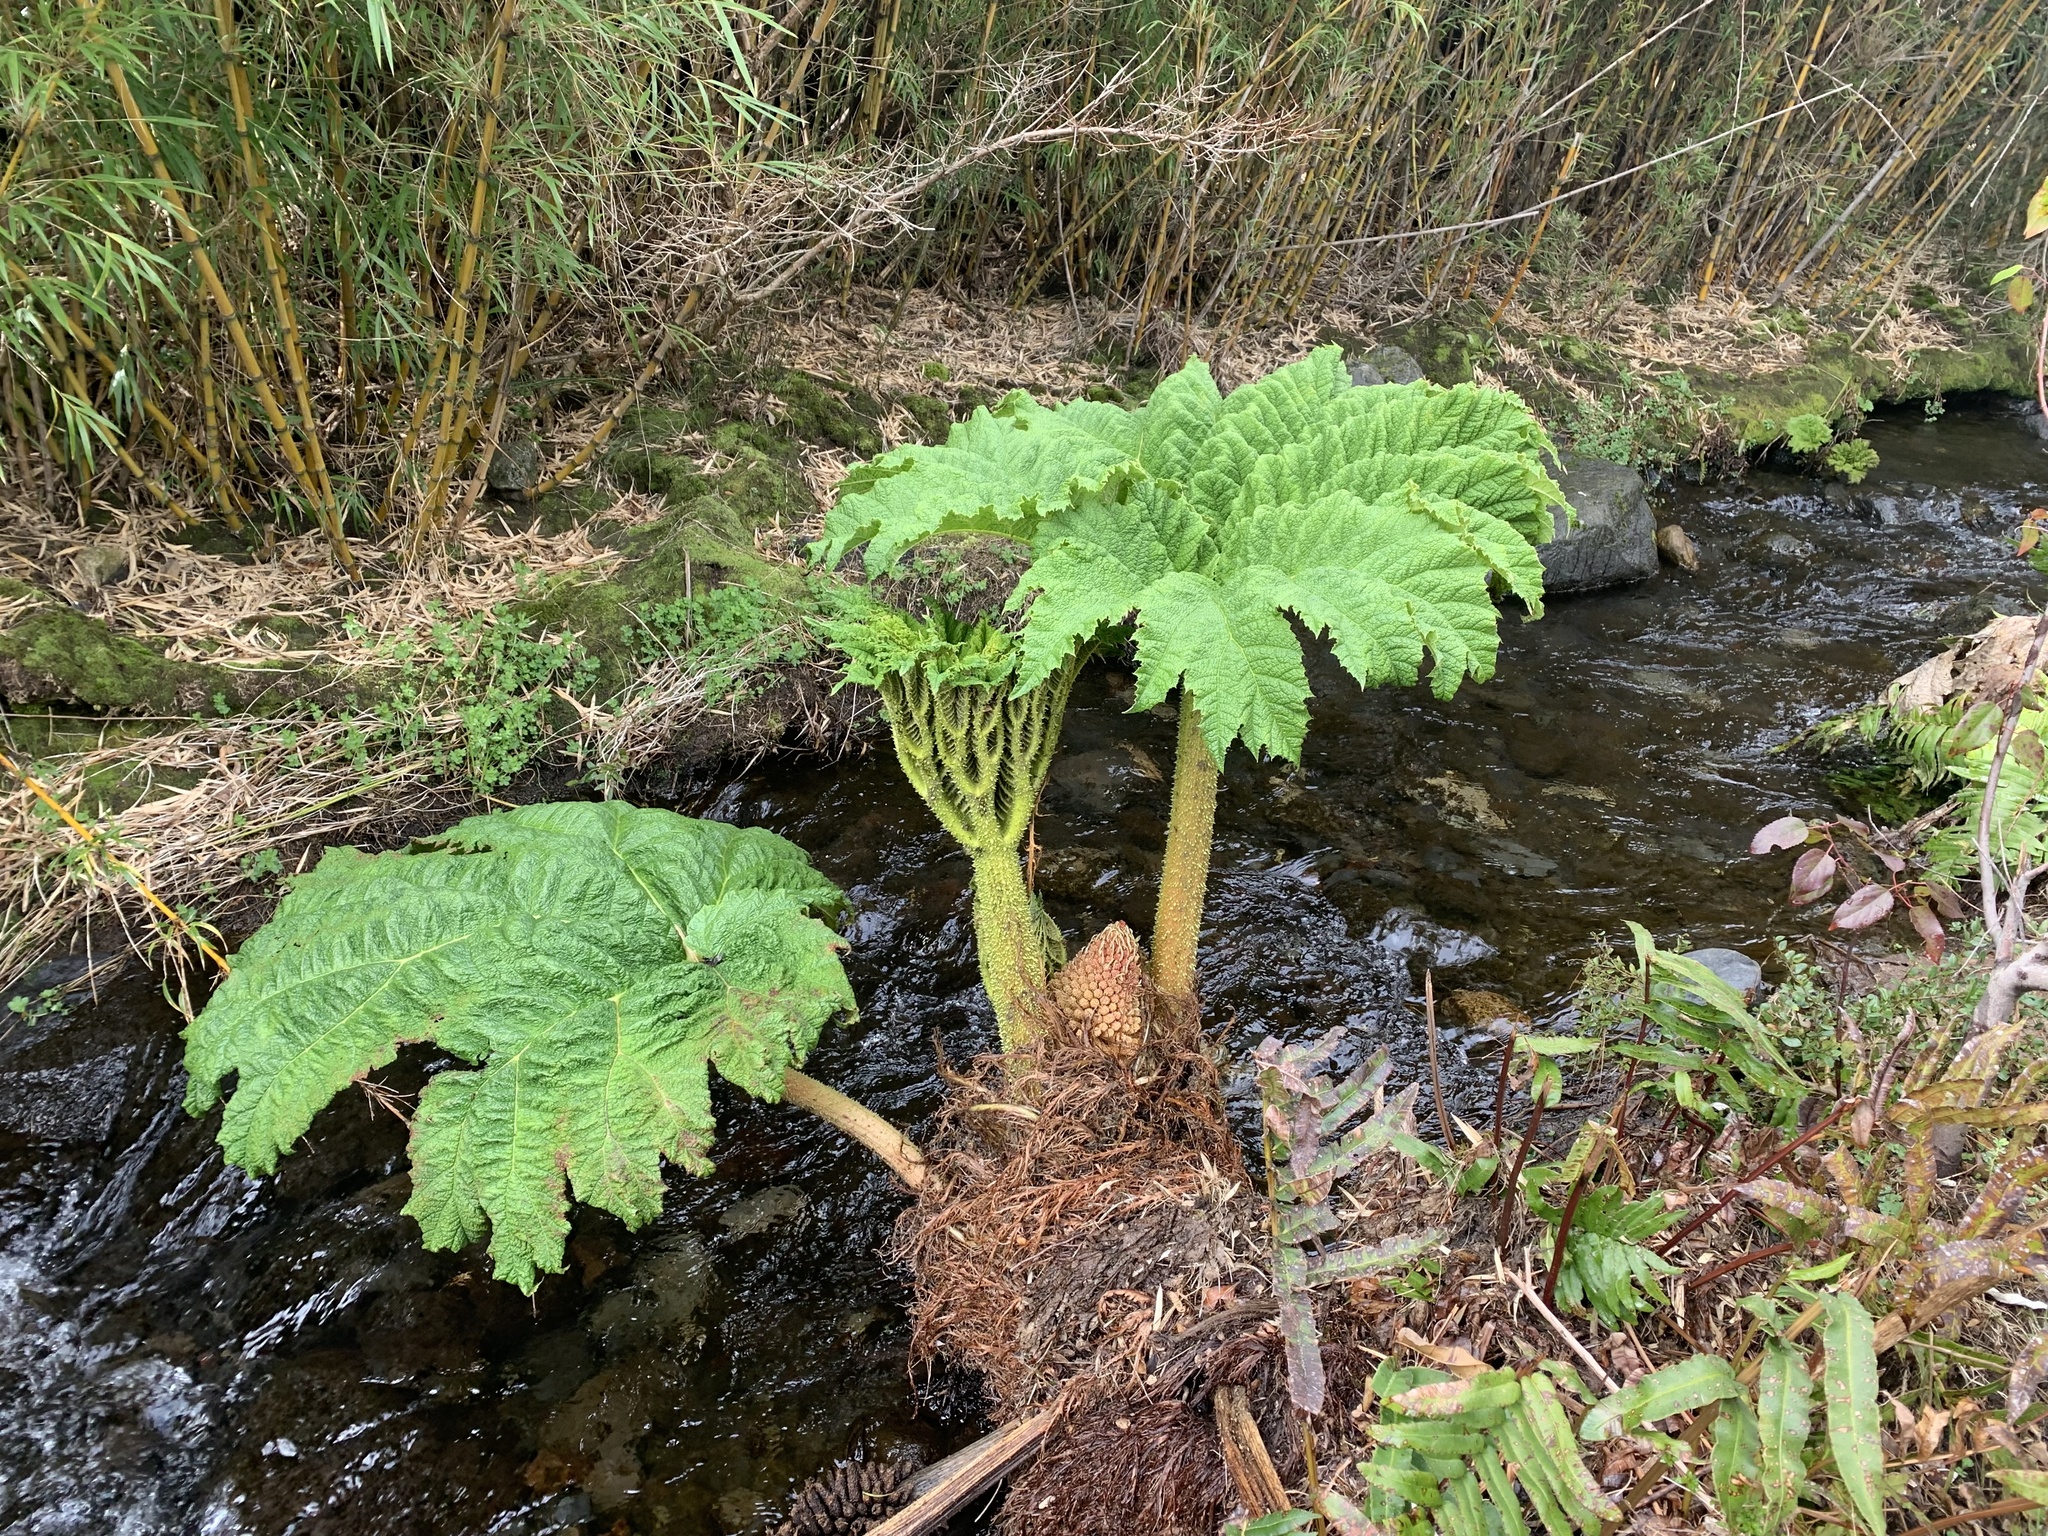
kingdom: Plantae
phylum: Tracheophyta
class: Magnoliopsida
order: Gunnerales
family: Gunneraceae
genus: Gunnera
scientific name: Gunnera tinctoria
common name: Giant-rhubarb
